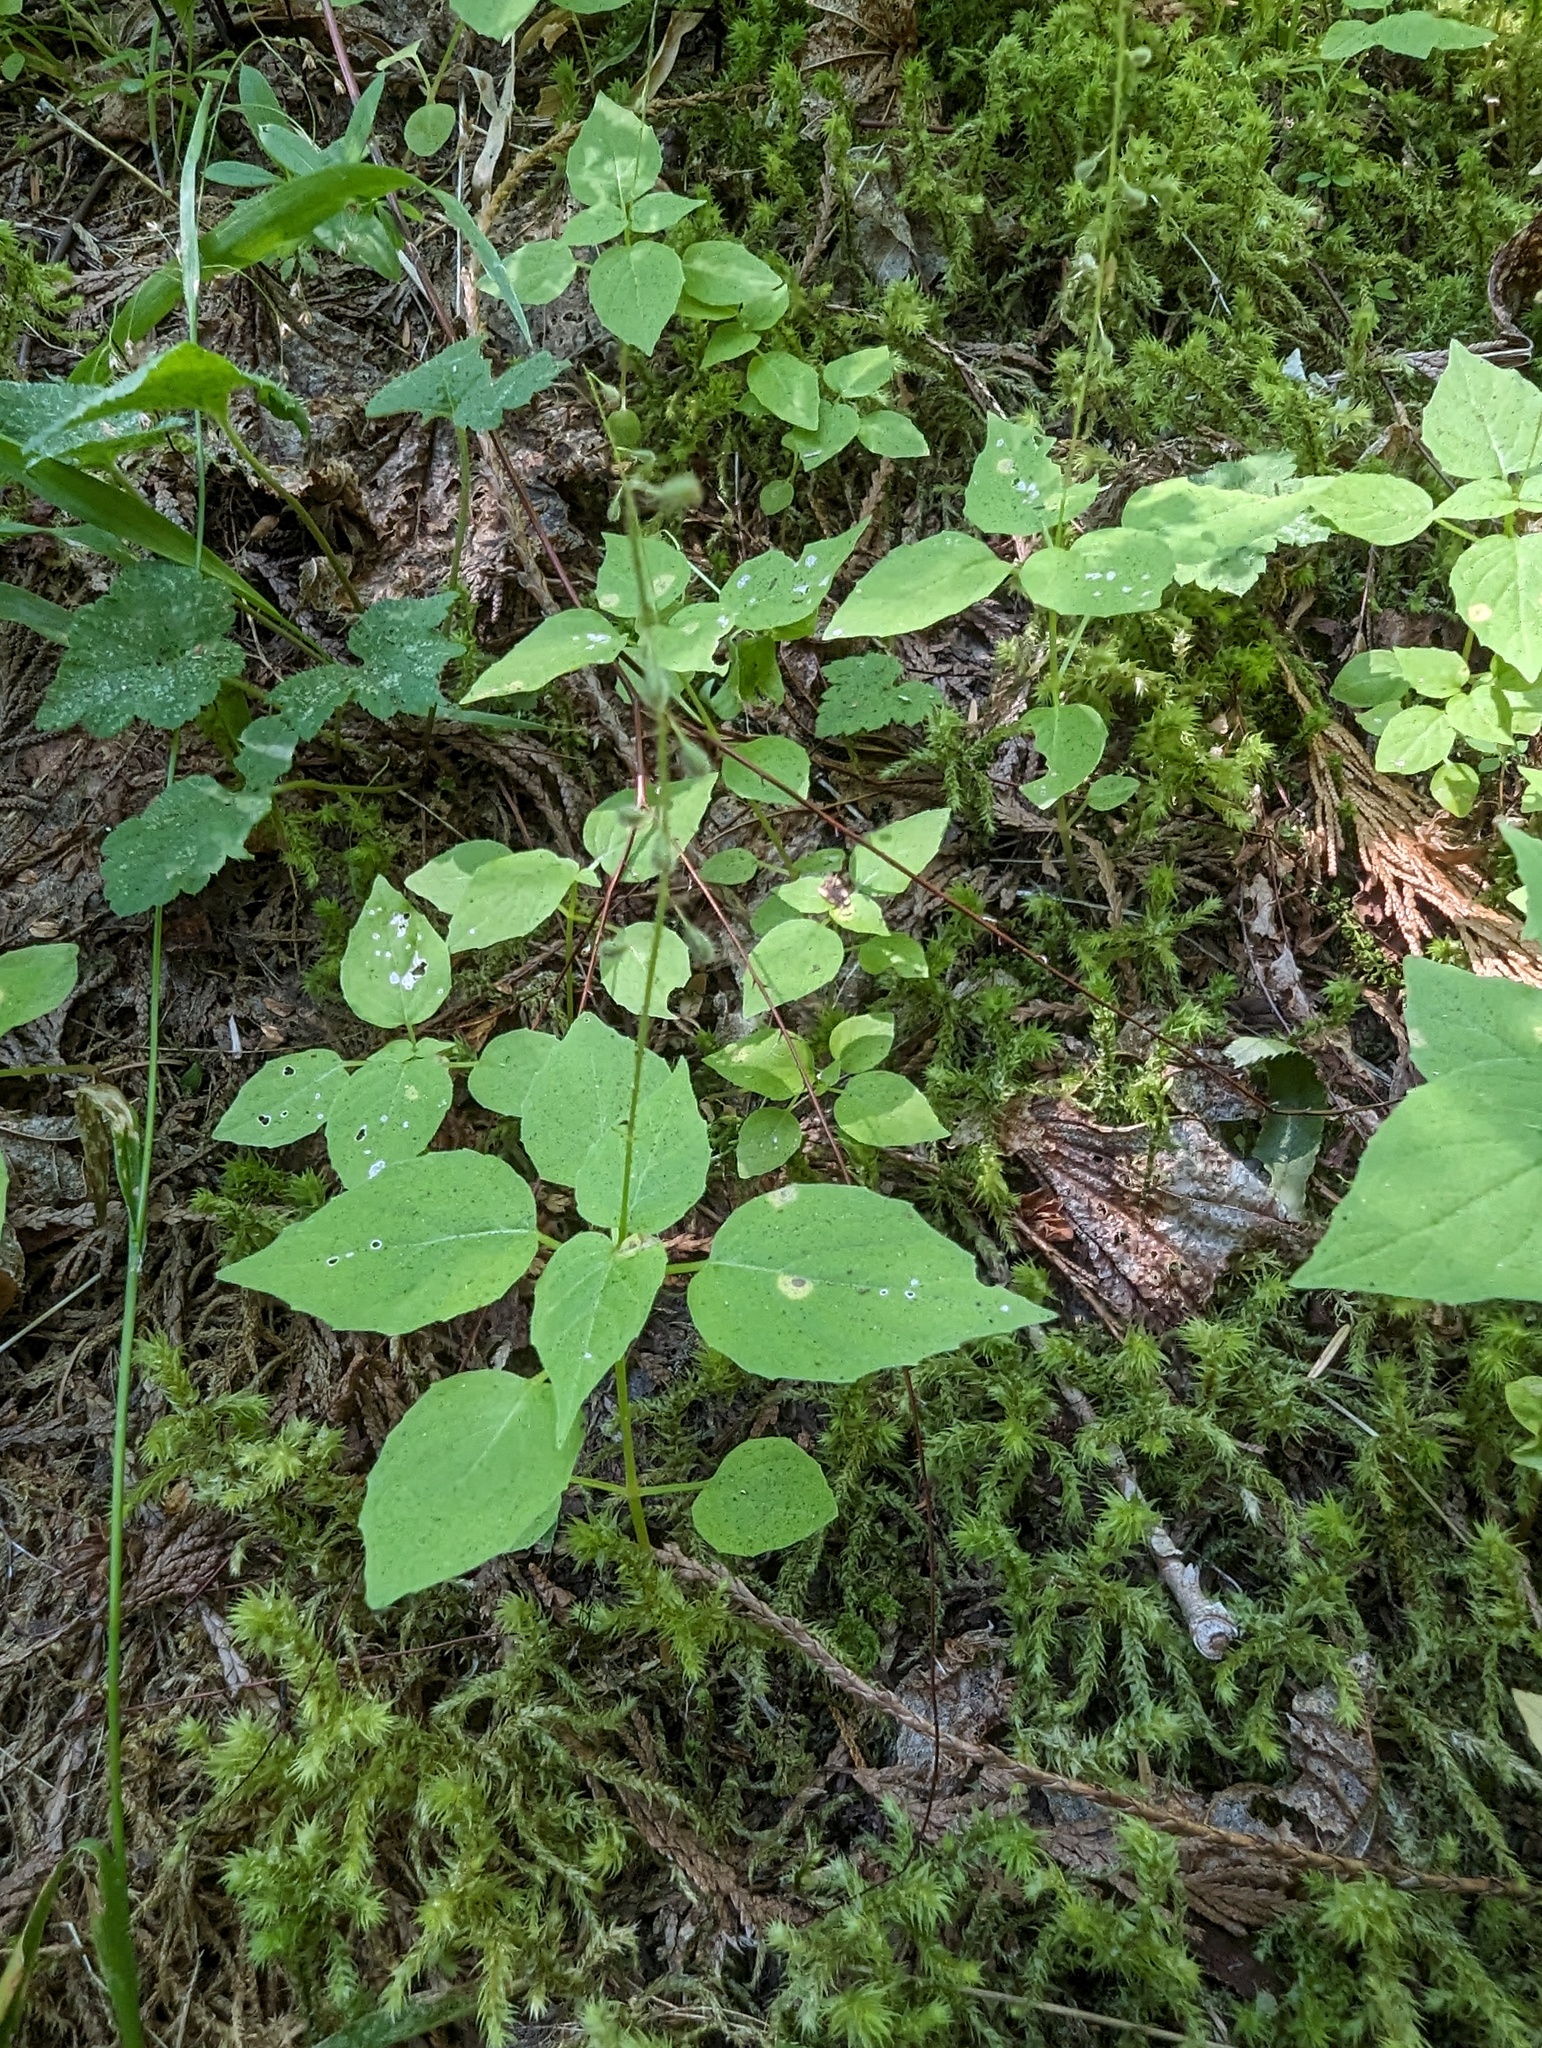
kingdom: Plantae
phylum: Tracheophyta
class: Magnoliopsida
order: Myrtales
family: Onagraceae
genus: Circaea
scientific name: Circaea alpina
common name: Alpine enchanter's-nightshade
